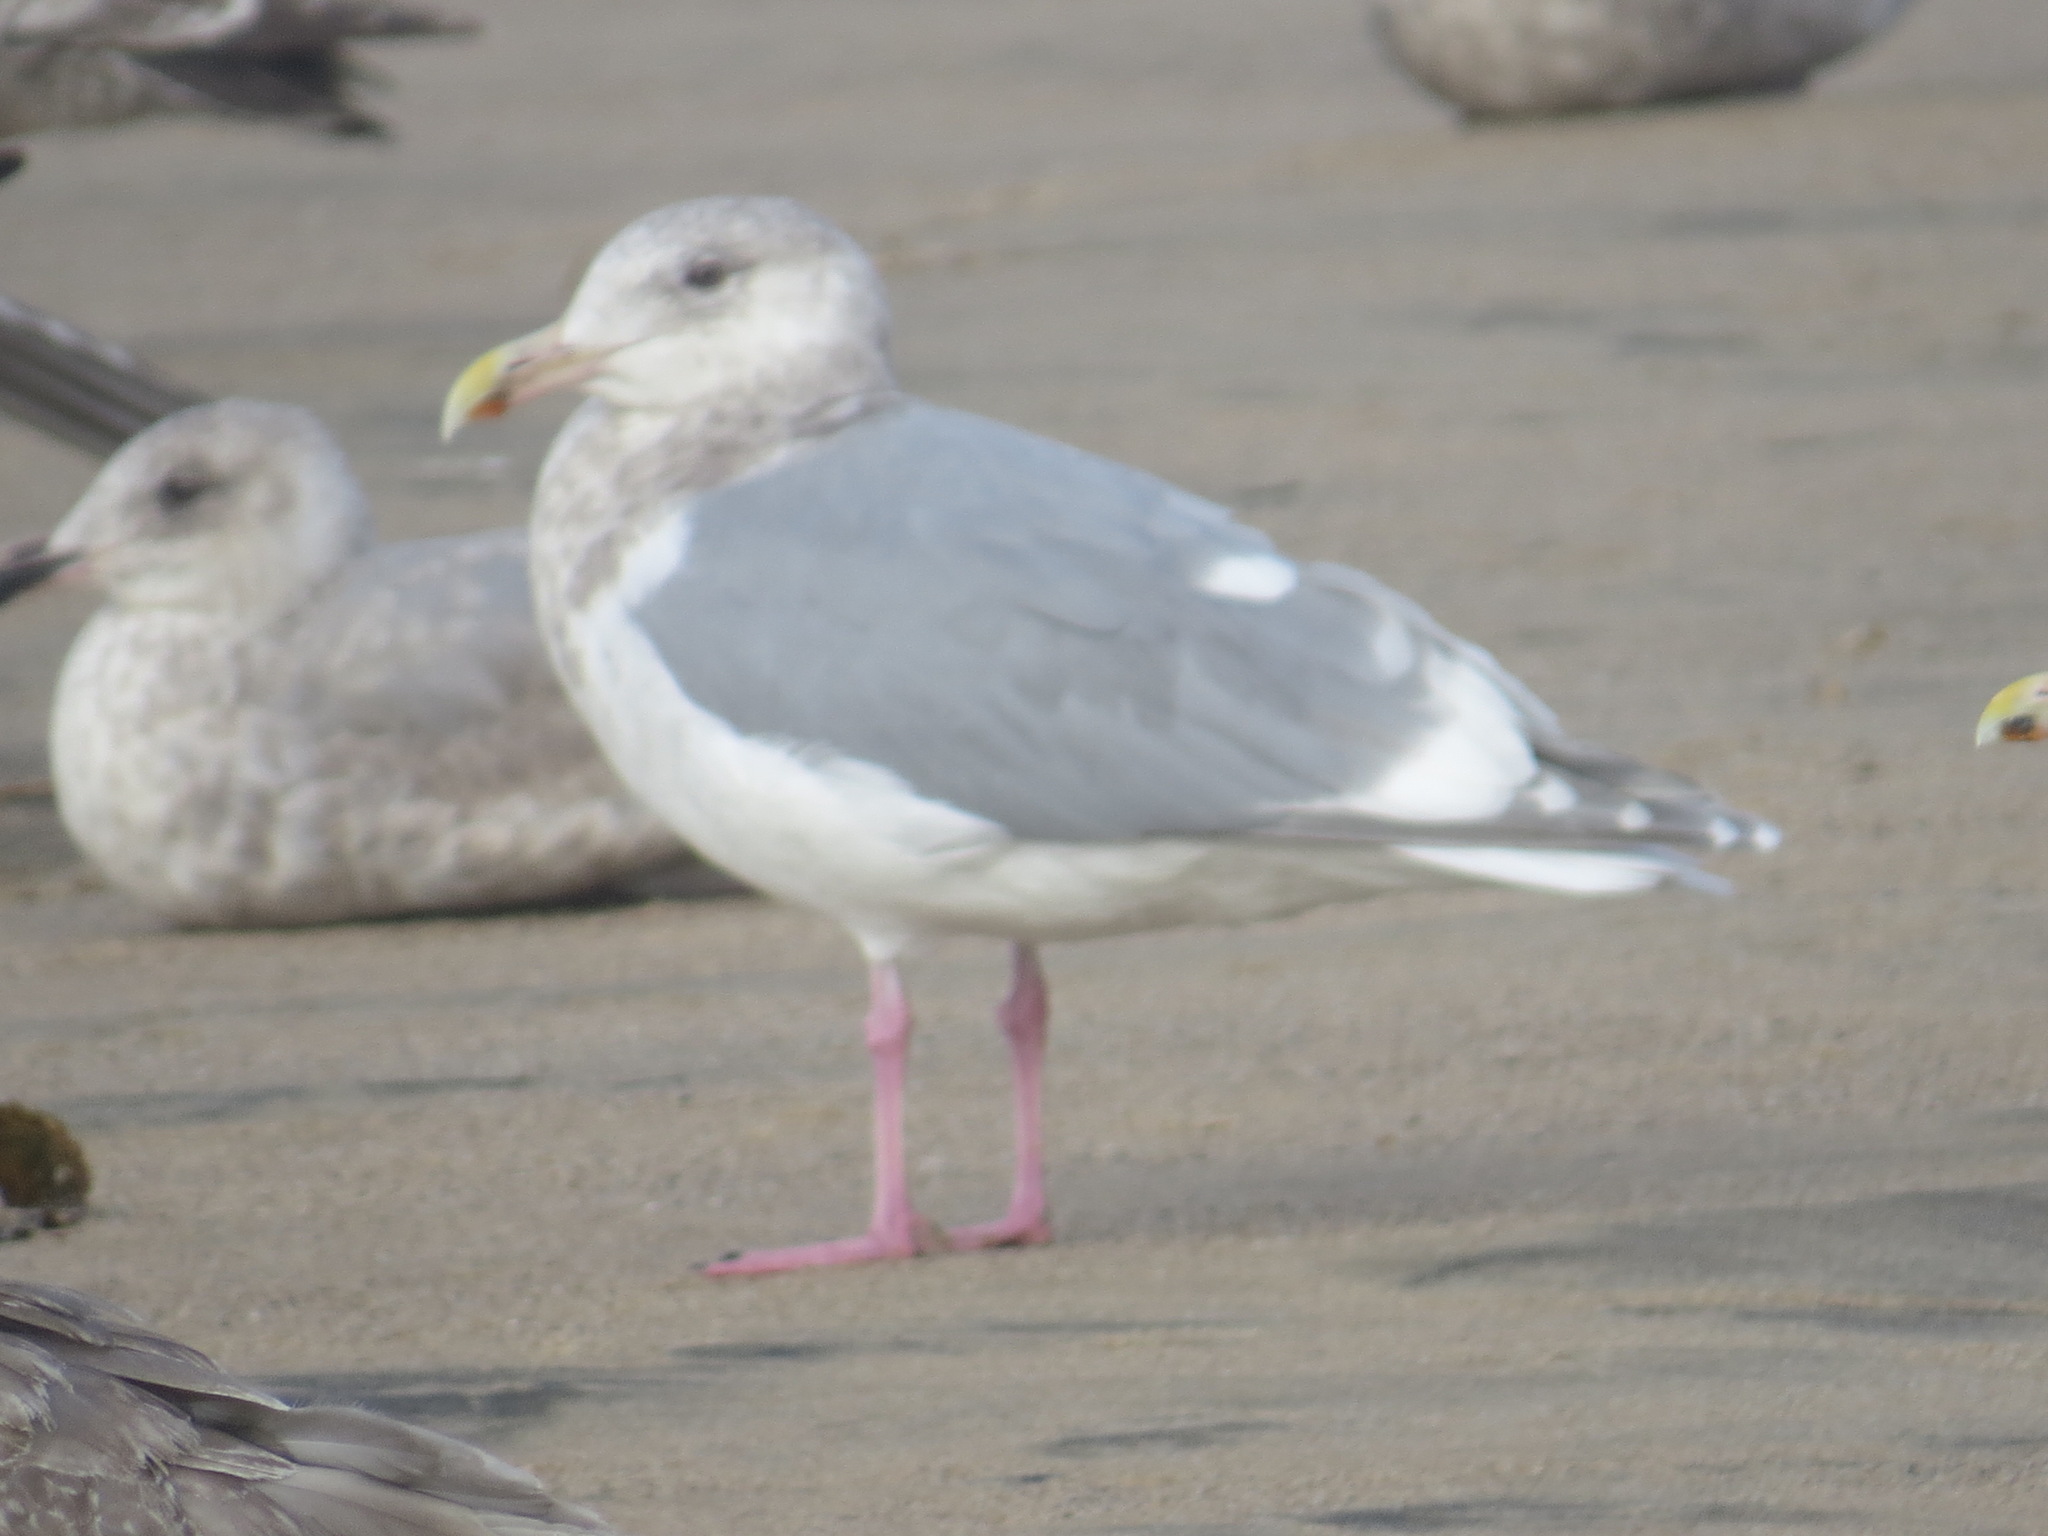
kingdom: Animalia
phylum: Chordata
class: Aves
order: Charadriiformes
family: Laridae
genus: Larus
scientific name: Larus glaucescens
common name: Glaucous-winged gull
